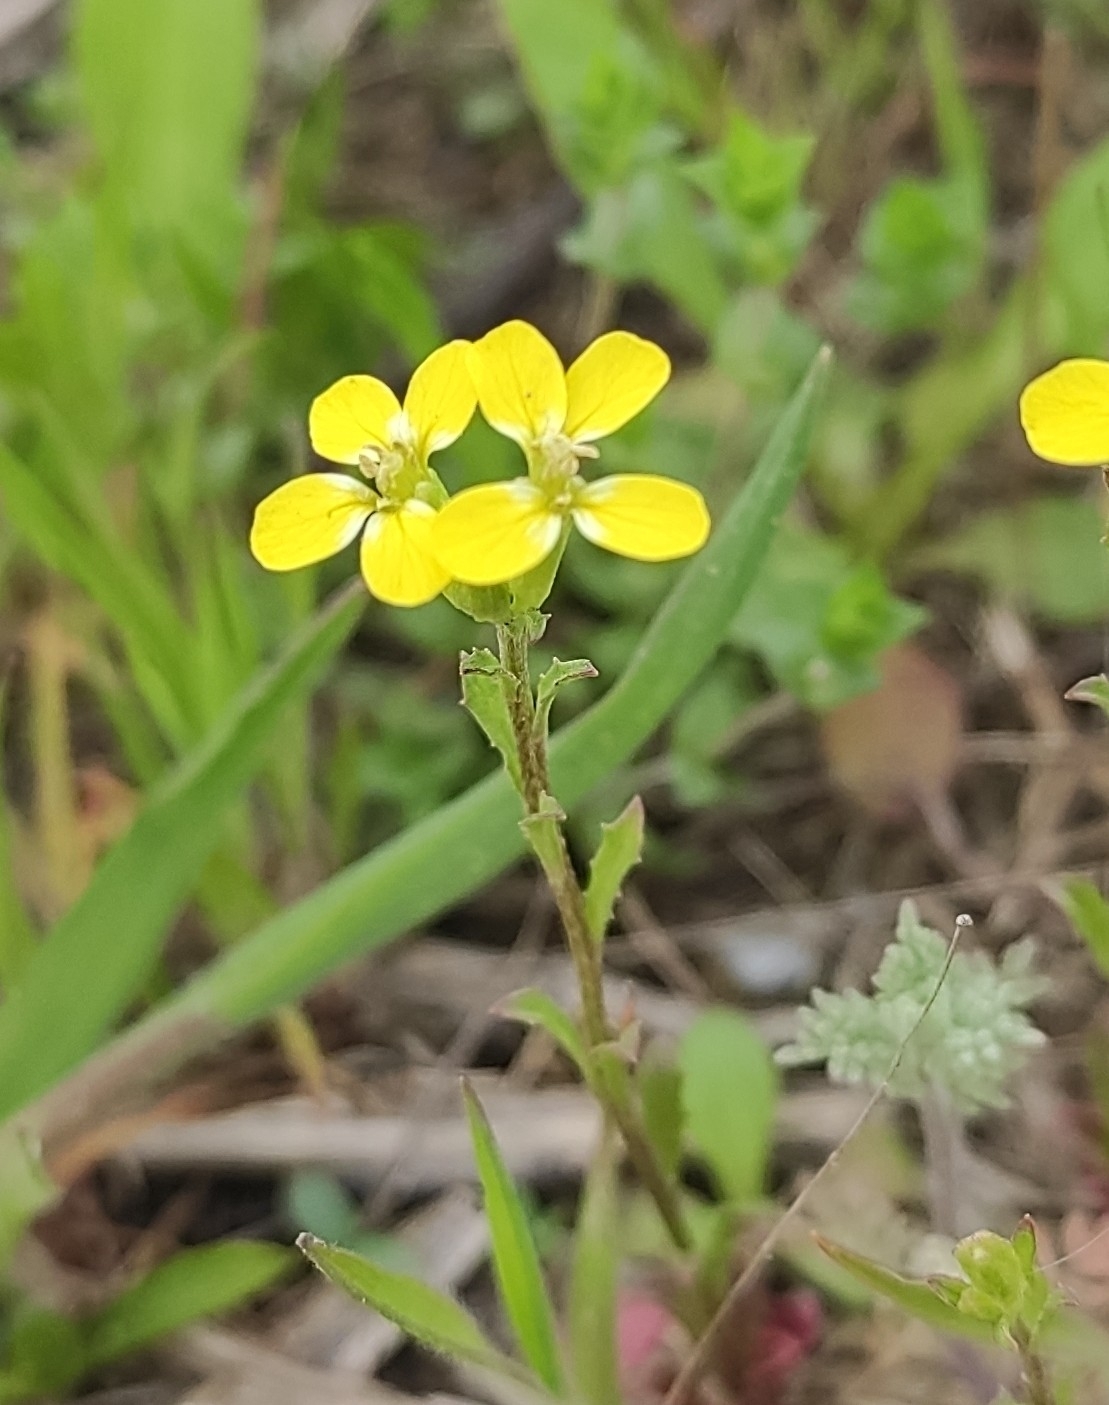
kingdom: Plantae
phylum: Tracheophyta
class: Magnoliopsida
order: Brassicales
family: Brassicaceae
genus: Erysimum
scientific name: Erysimum repandum
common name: Spreading wallflower
